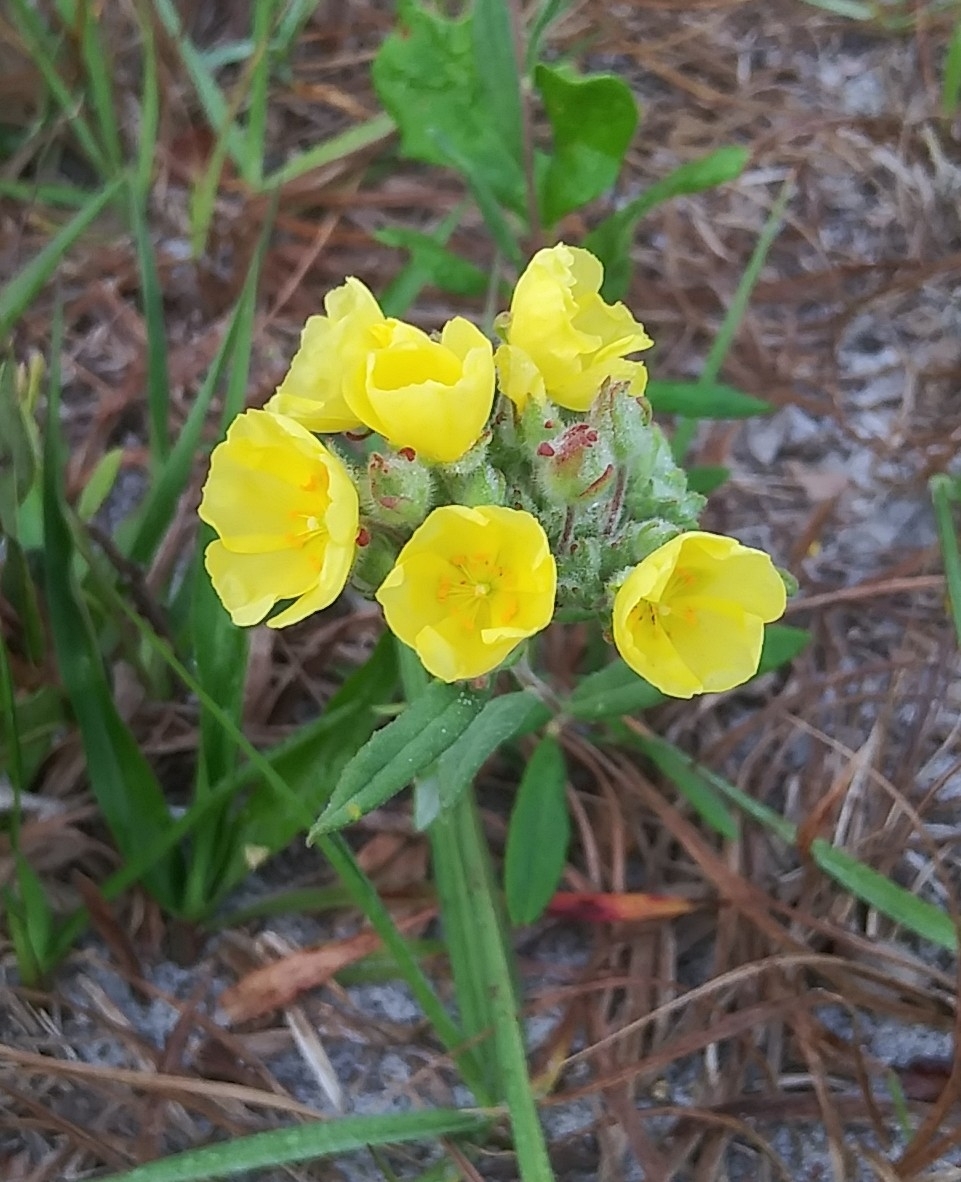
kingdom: Plantae
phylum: Tracheophyta
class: Magnoliopsida
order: Malvales
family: Cistaceae
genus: Crocanthemum
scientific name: Crocanthemum corymbosum
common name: Pinebarren sun-rose
